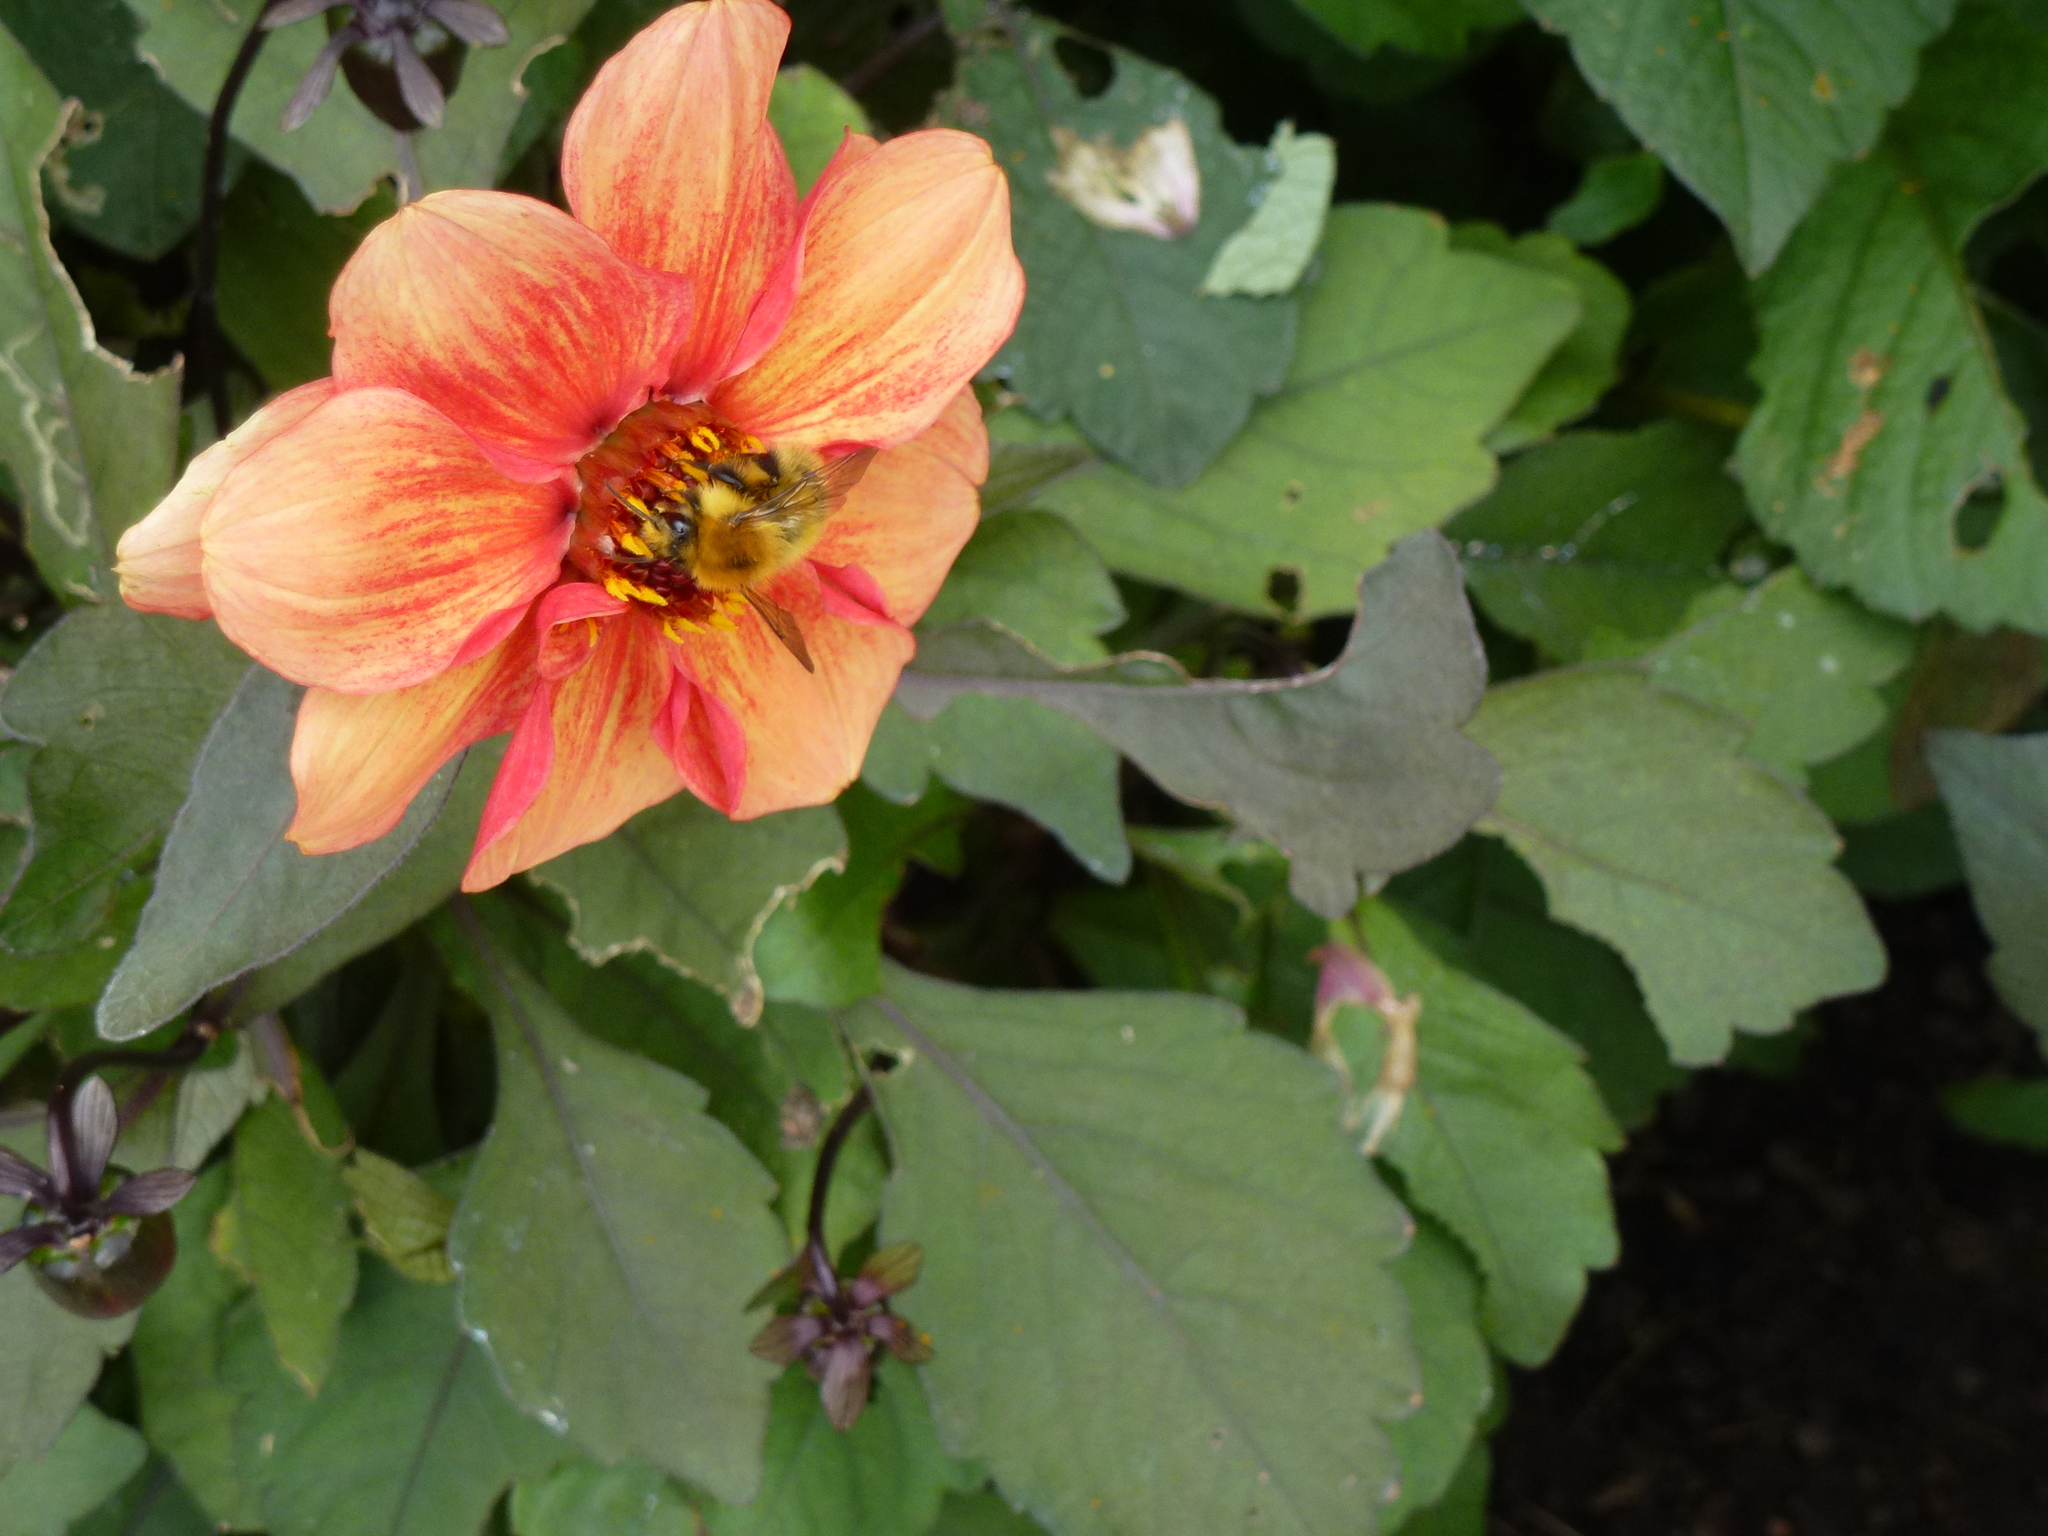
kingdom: Animalia
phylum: Arthropoda
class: Insecta
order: Hymenoptera
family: Apidae
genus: Bombus
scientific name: Bombus pascuorum
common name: Common carder bee
